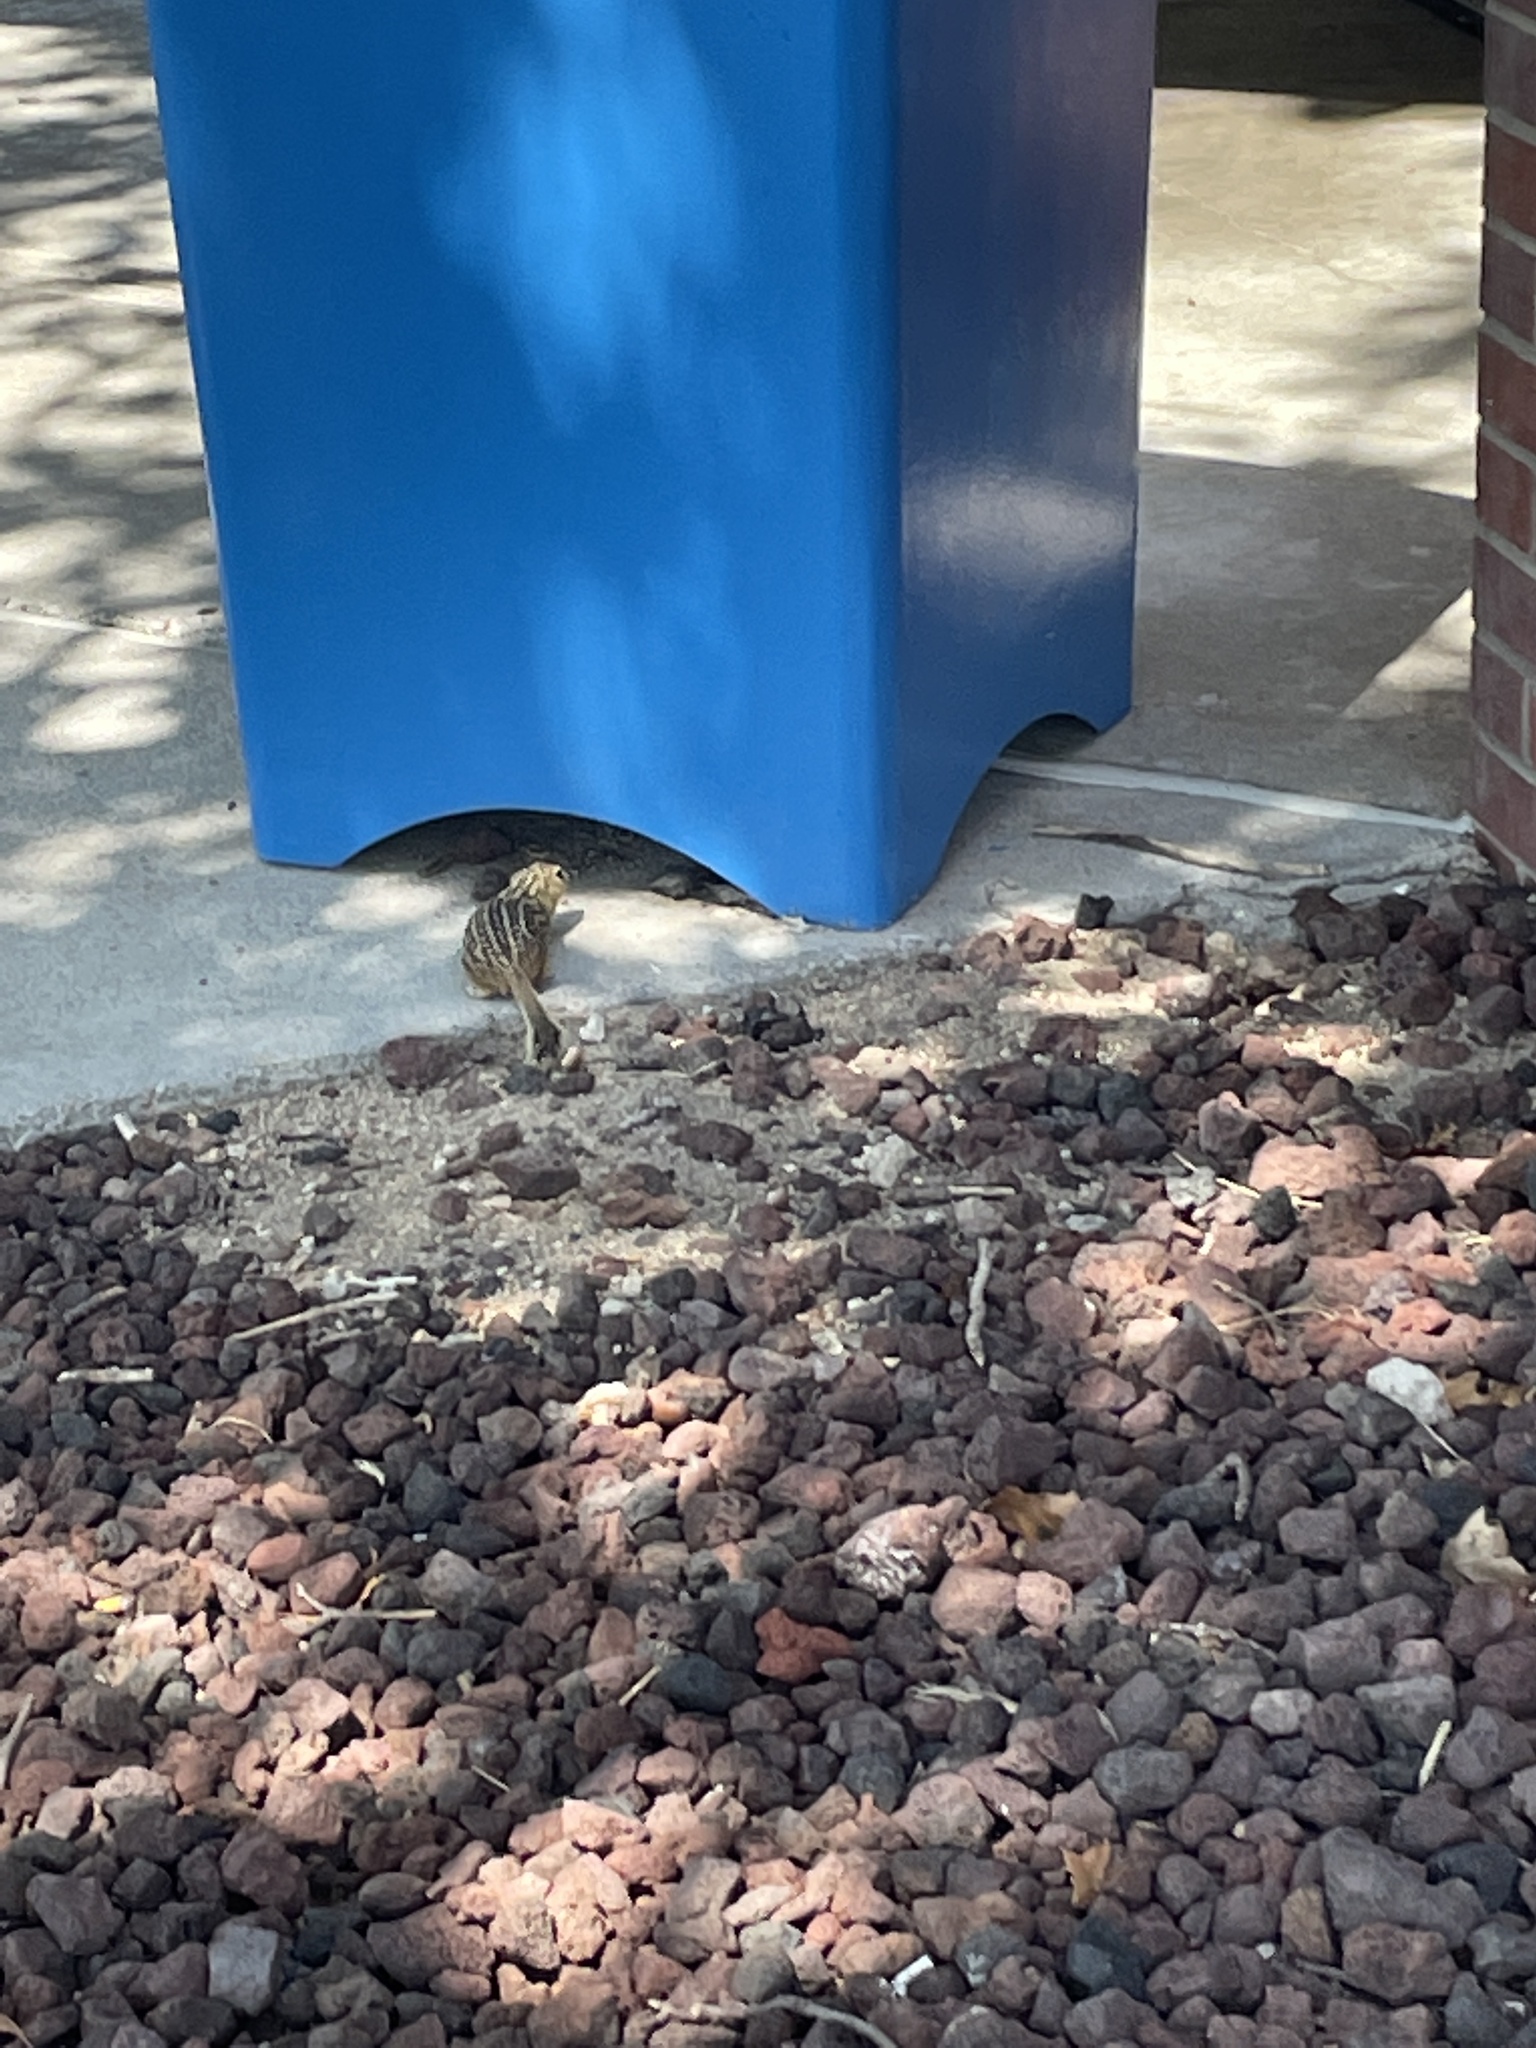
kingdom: Animalia
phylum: Chordata
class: Mammalia
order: Rodentia
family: Sciuridae
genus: Ictidomys
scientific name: Ictidomys tridecemlineatus
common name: Thirteen-lined ground squirrel
